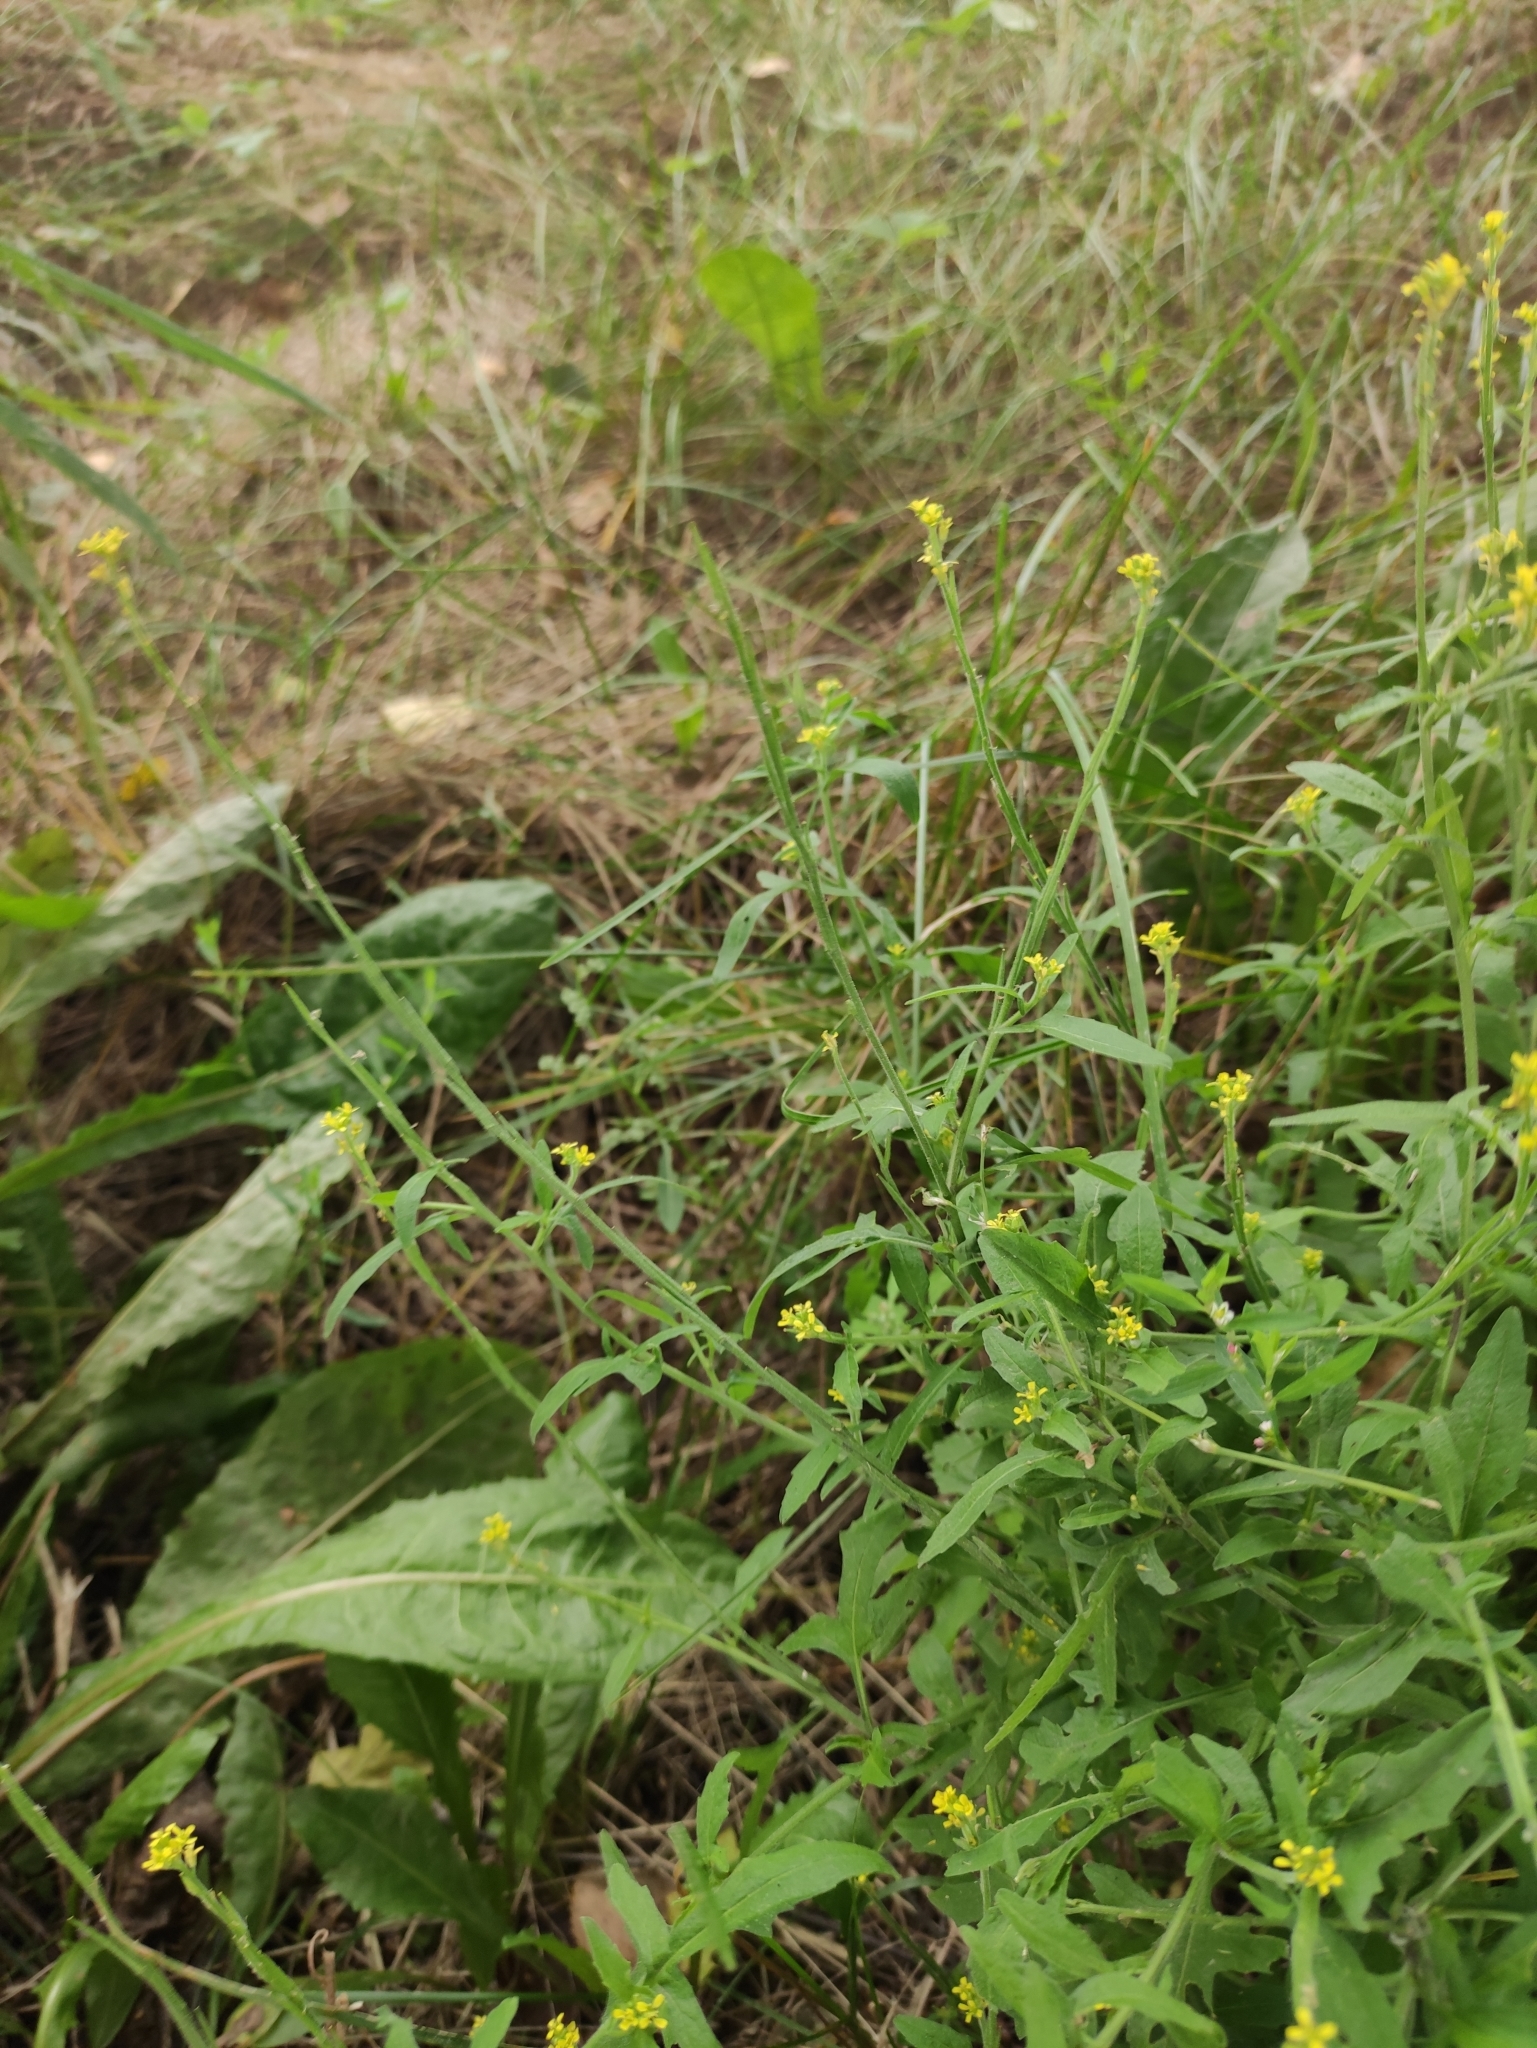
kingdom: Plantae
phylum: Tracheophyta
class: Magnoliopsida
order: Brassicales
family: Brassicaceae
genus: Sisymbrium
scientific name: Sisymbrium officinale
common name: Hedge mustard
